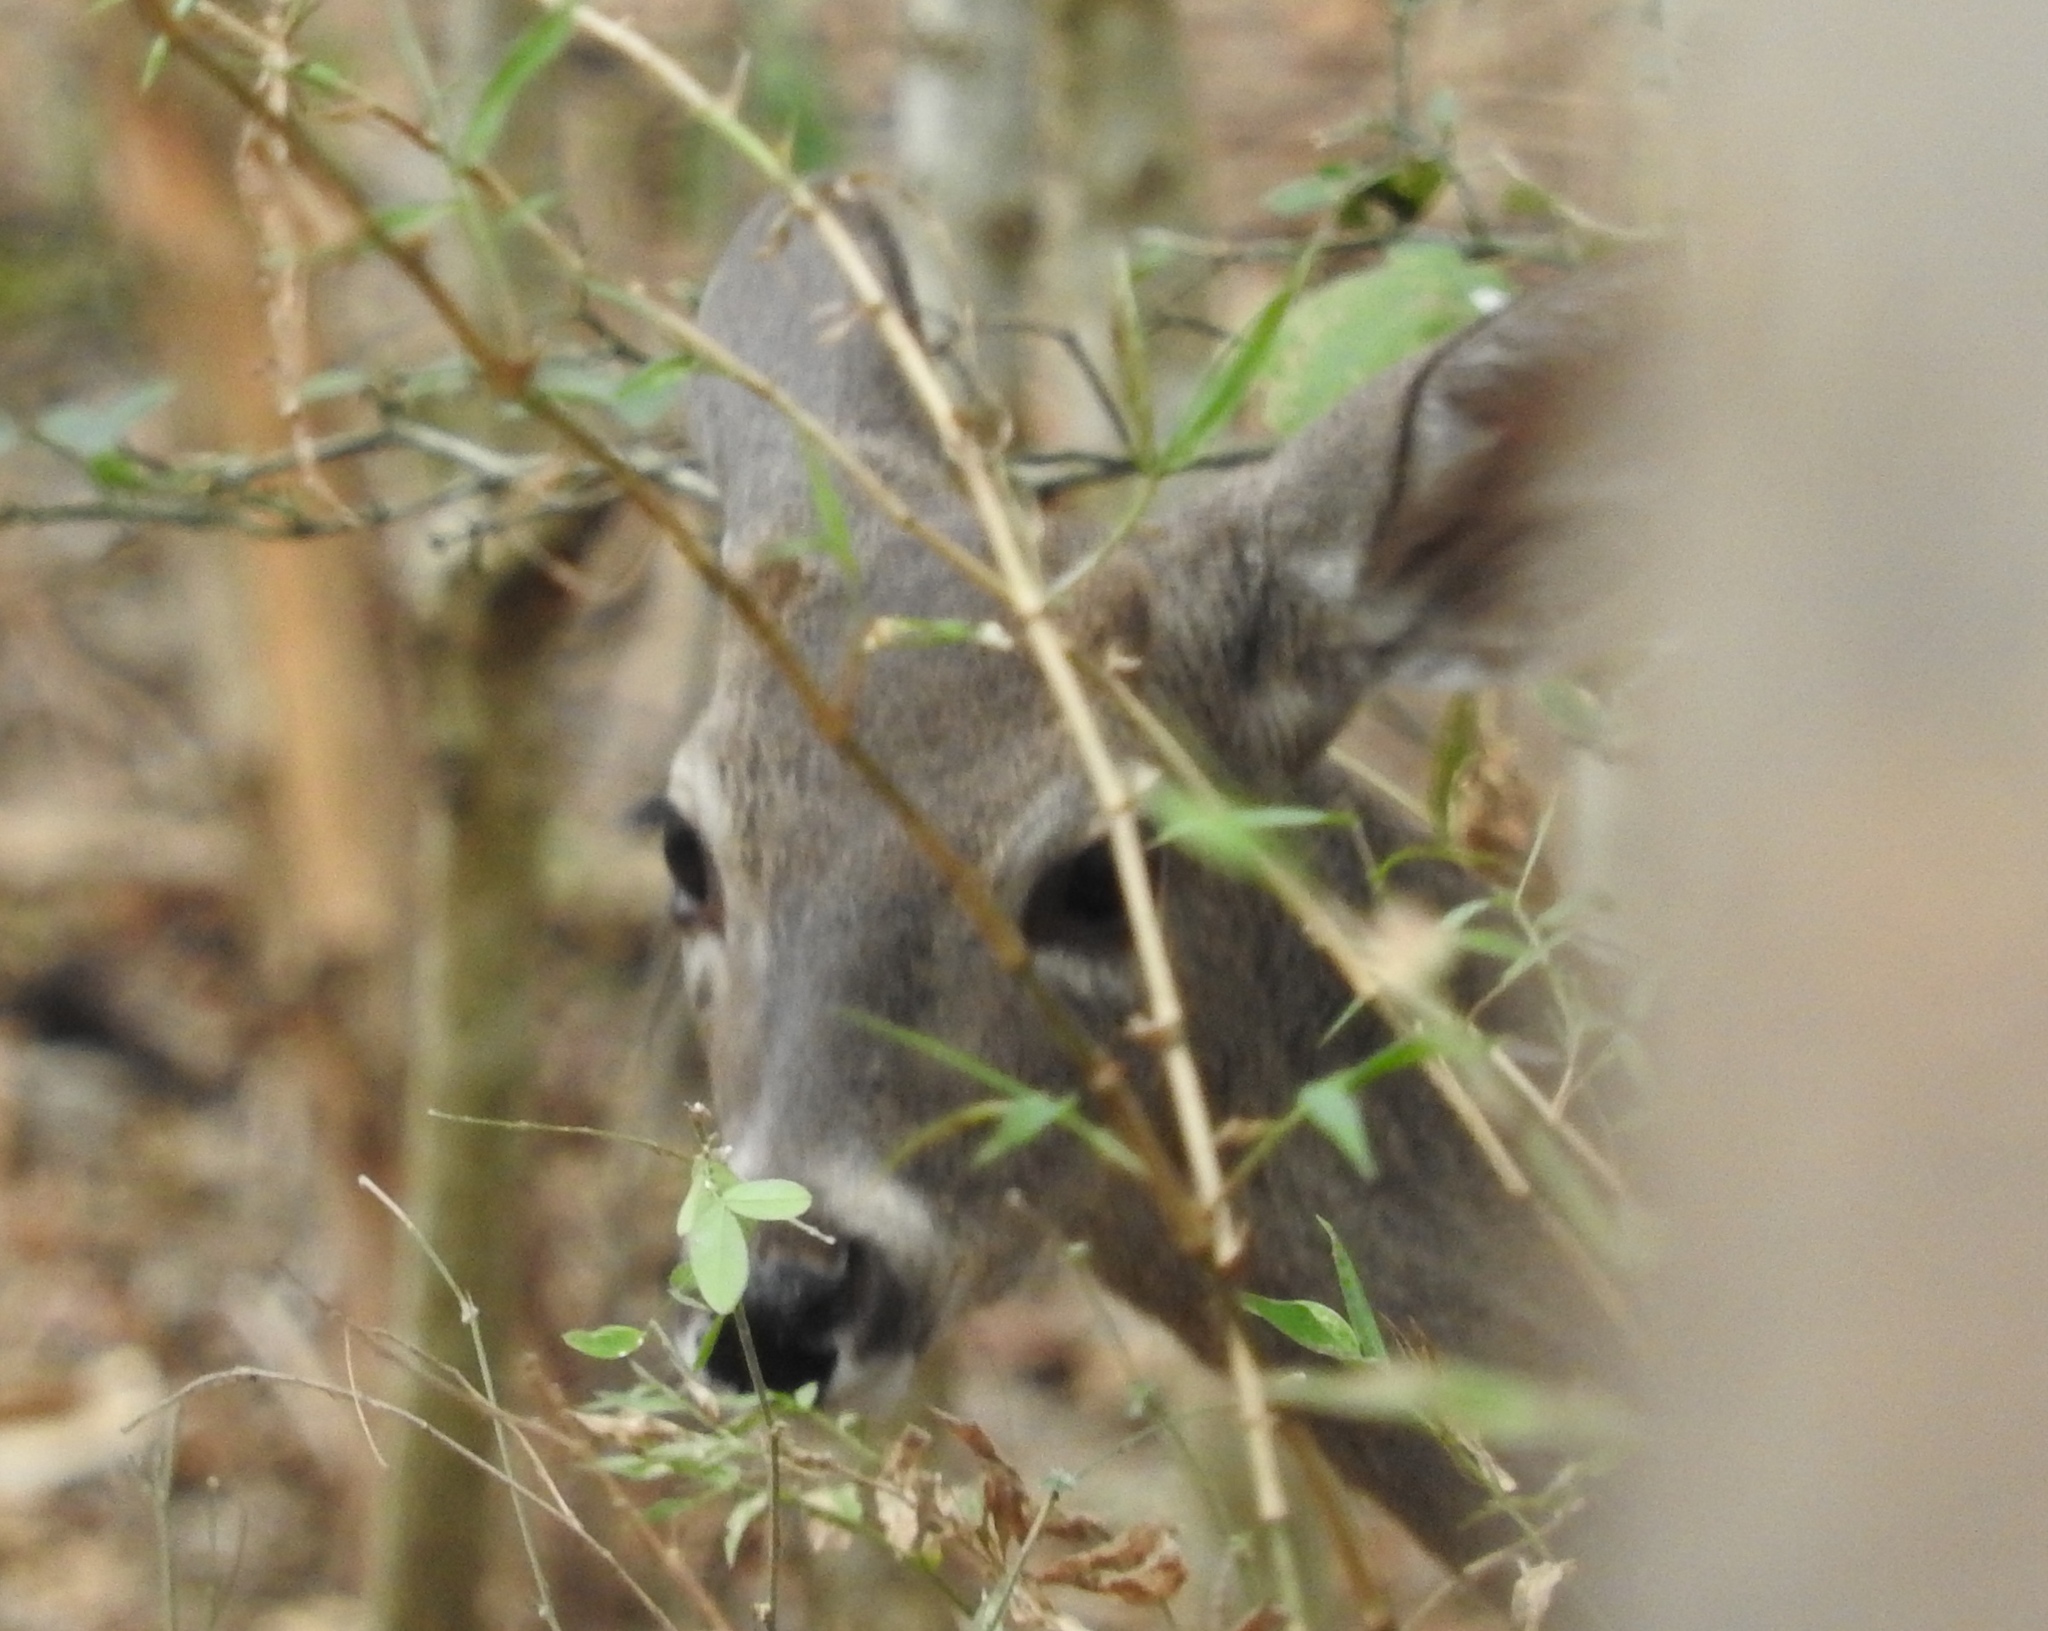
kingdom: Animalia
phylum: Chordata
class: Mammalia
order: Artiodactyla
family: Cervidae
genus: Odocoileus
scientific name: Odocoileus virginianus
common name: White-tailed deer
